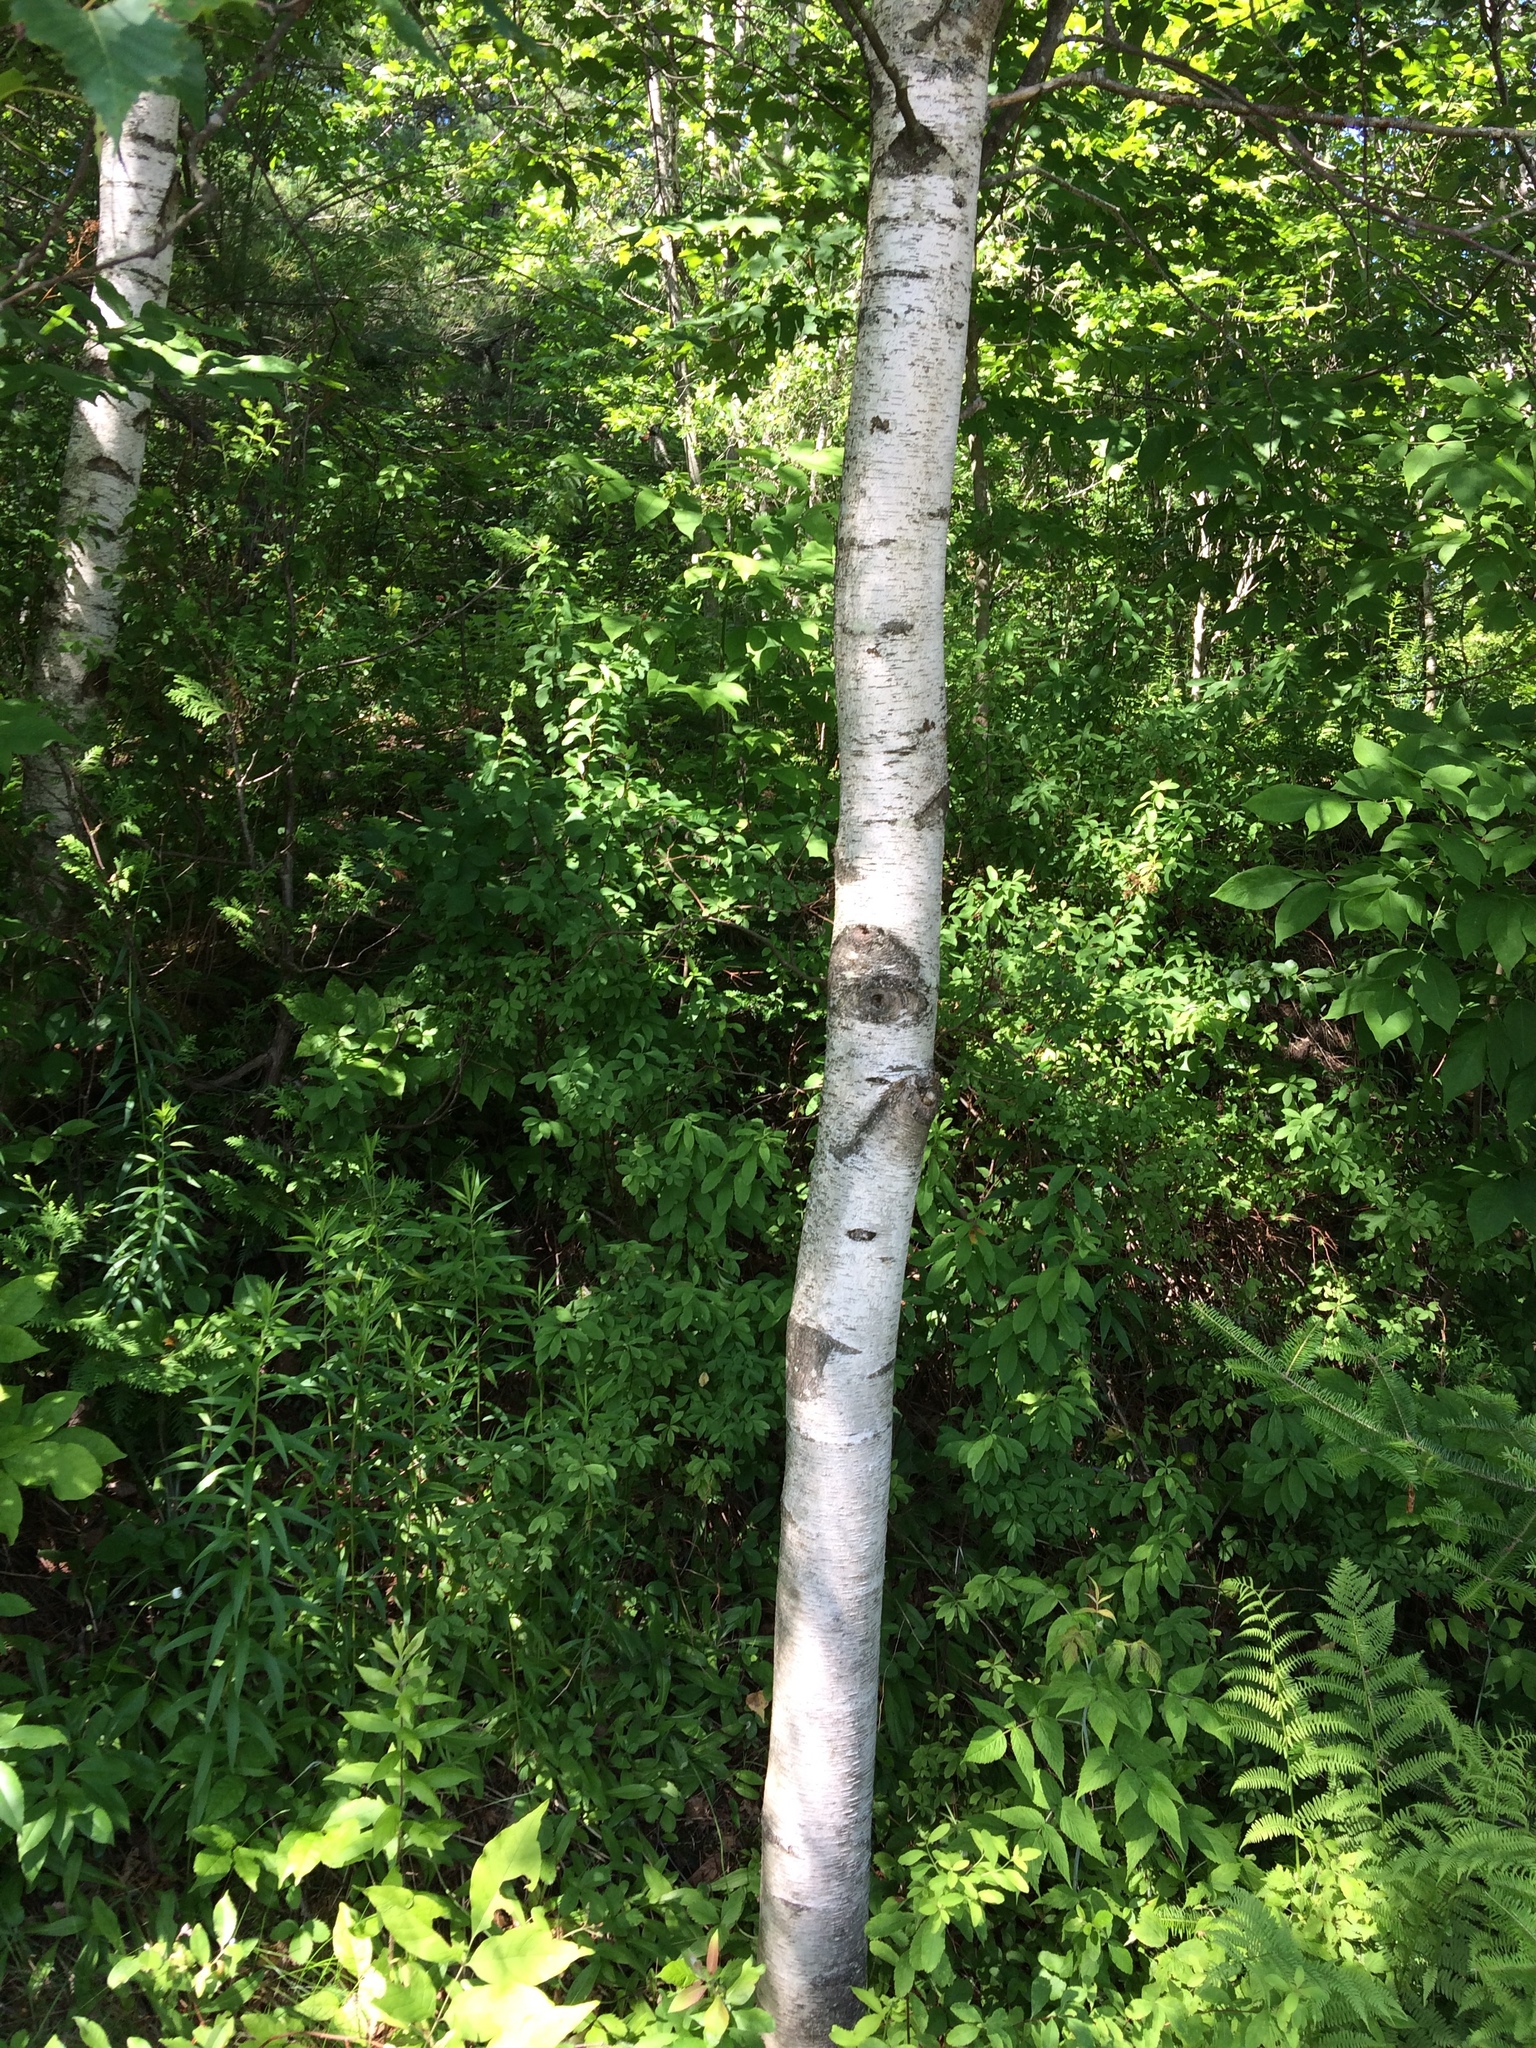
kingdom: Plantae
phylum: Tracheophyta
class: Magnoliopsida
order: Fagales
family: Betulaceae
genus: Betula
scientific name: Betula populifolia
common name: Fire birch
